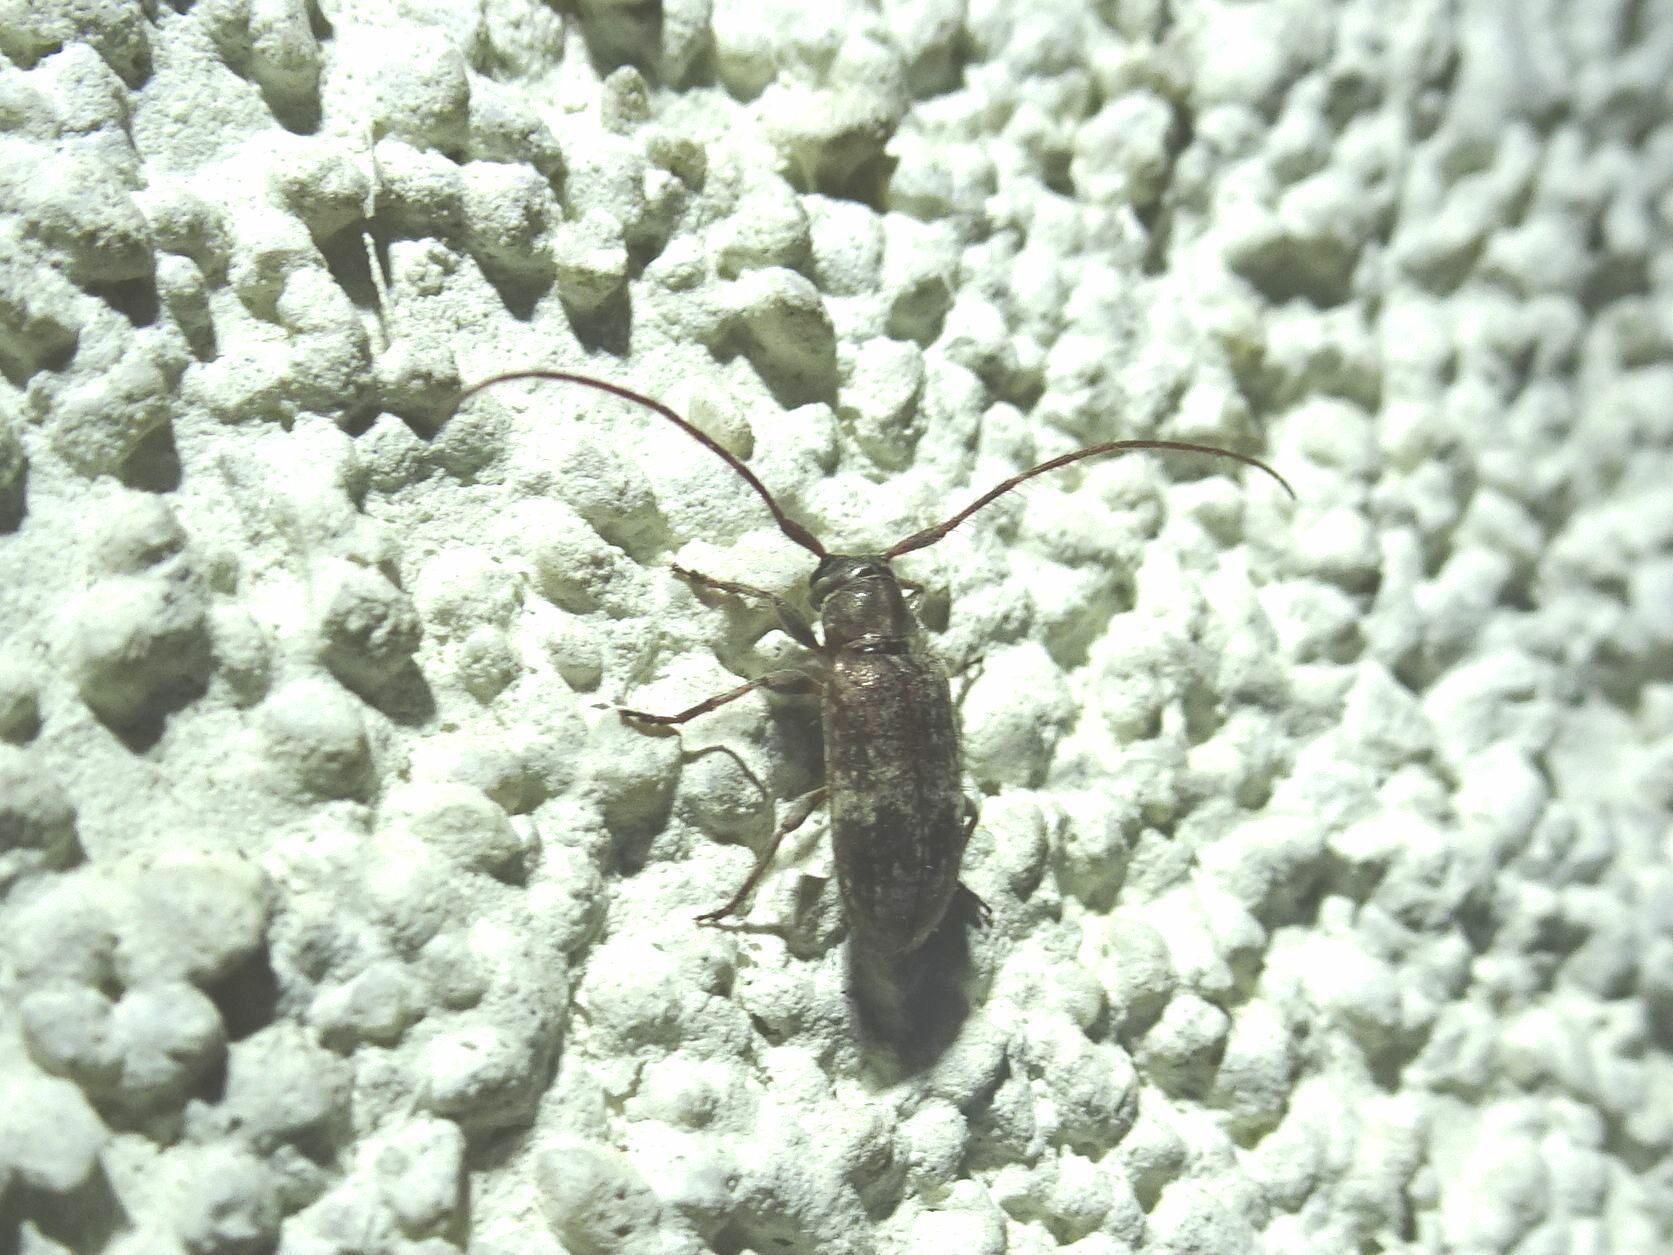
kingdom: Animalia
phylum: Arthropoda
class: Insecta
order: Coleoptera
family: Cerambycidae
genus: Exocentrus
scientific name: Exocentrus adspersus
